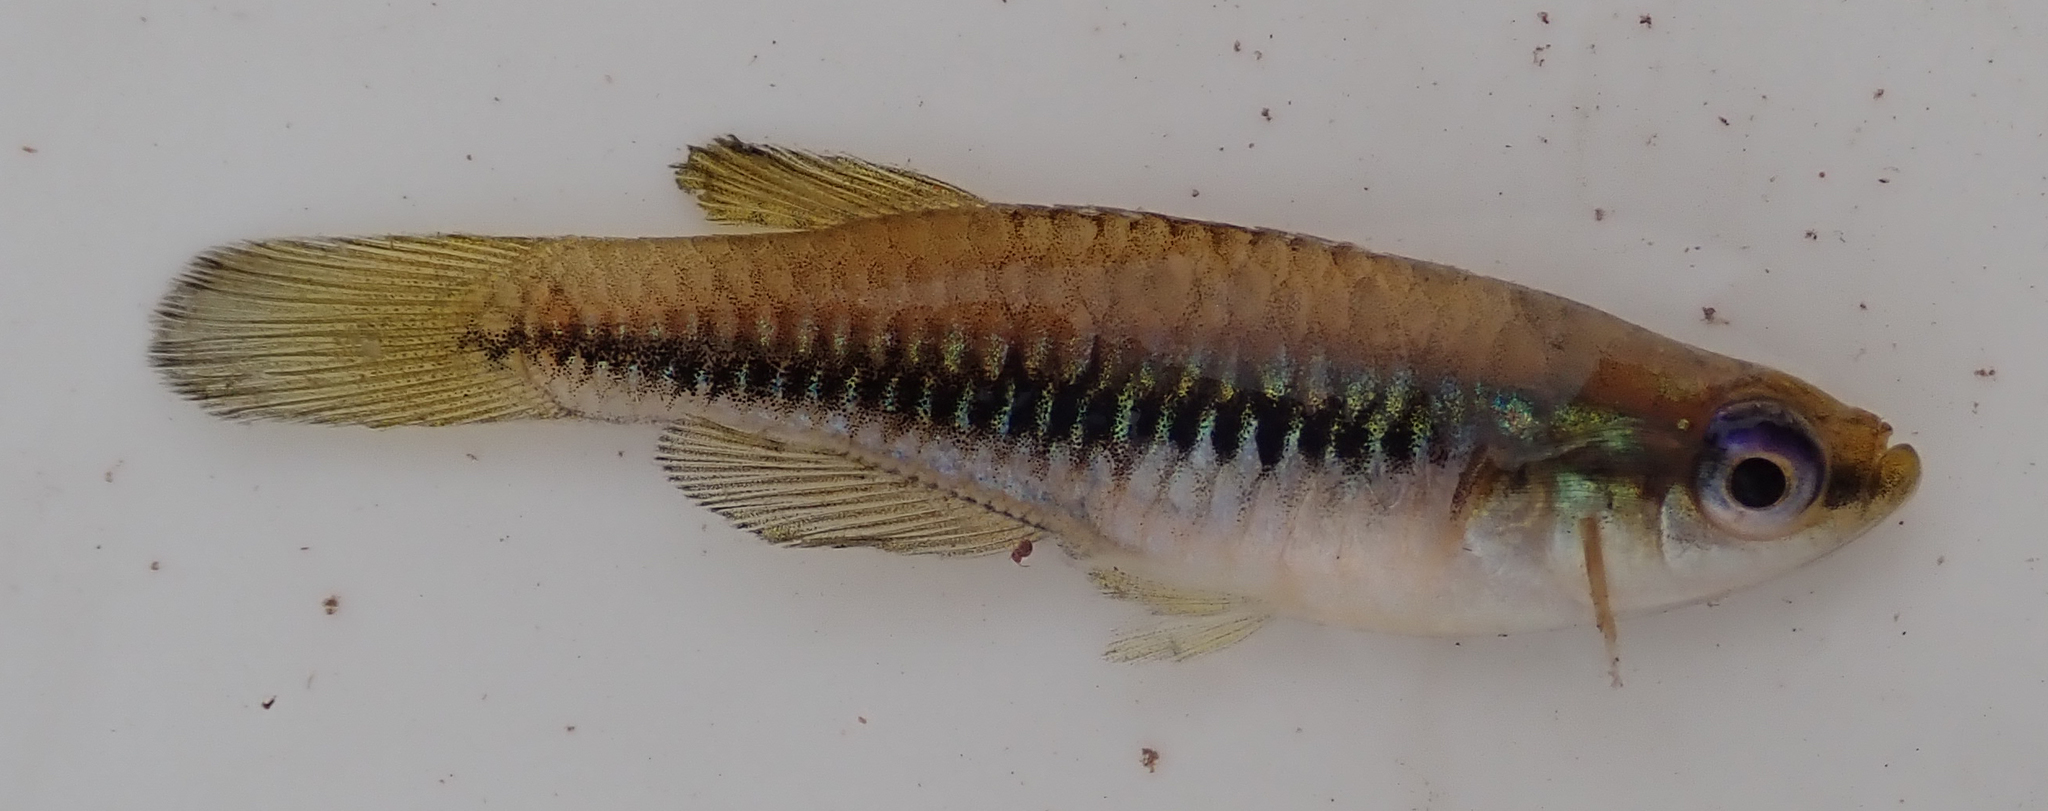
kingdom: Animalia
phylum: Chordata
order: Cyprinodontiformes
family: Poeciliidae
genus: Lacustricola
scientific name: Lacustricola katangae
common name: Striped topminnow
